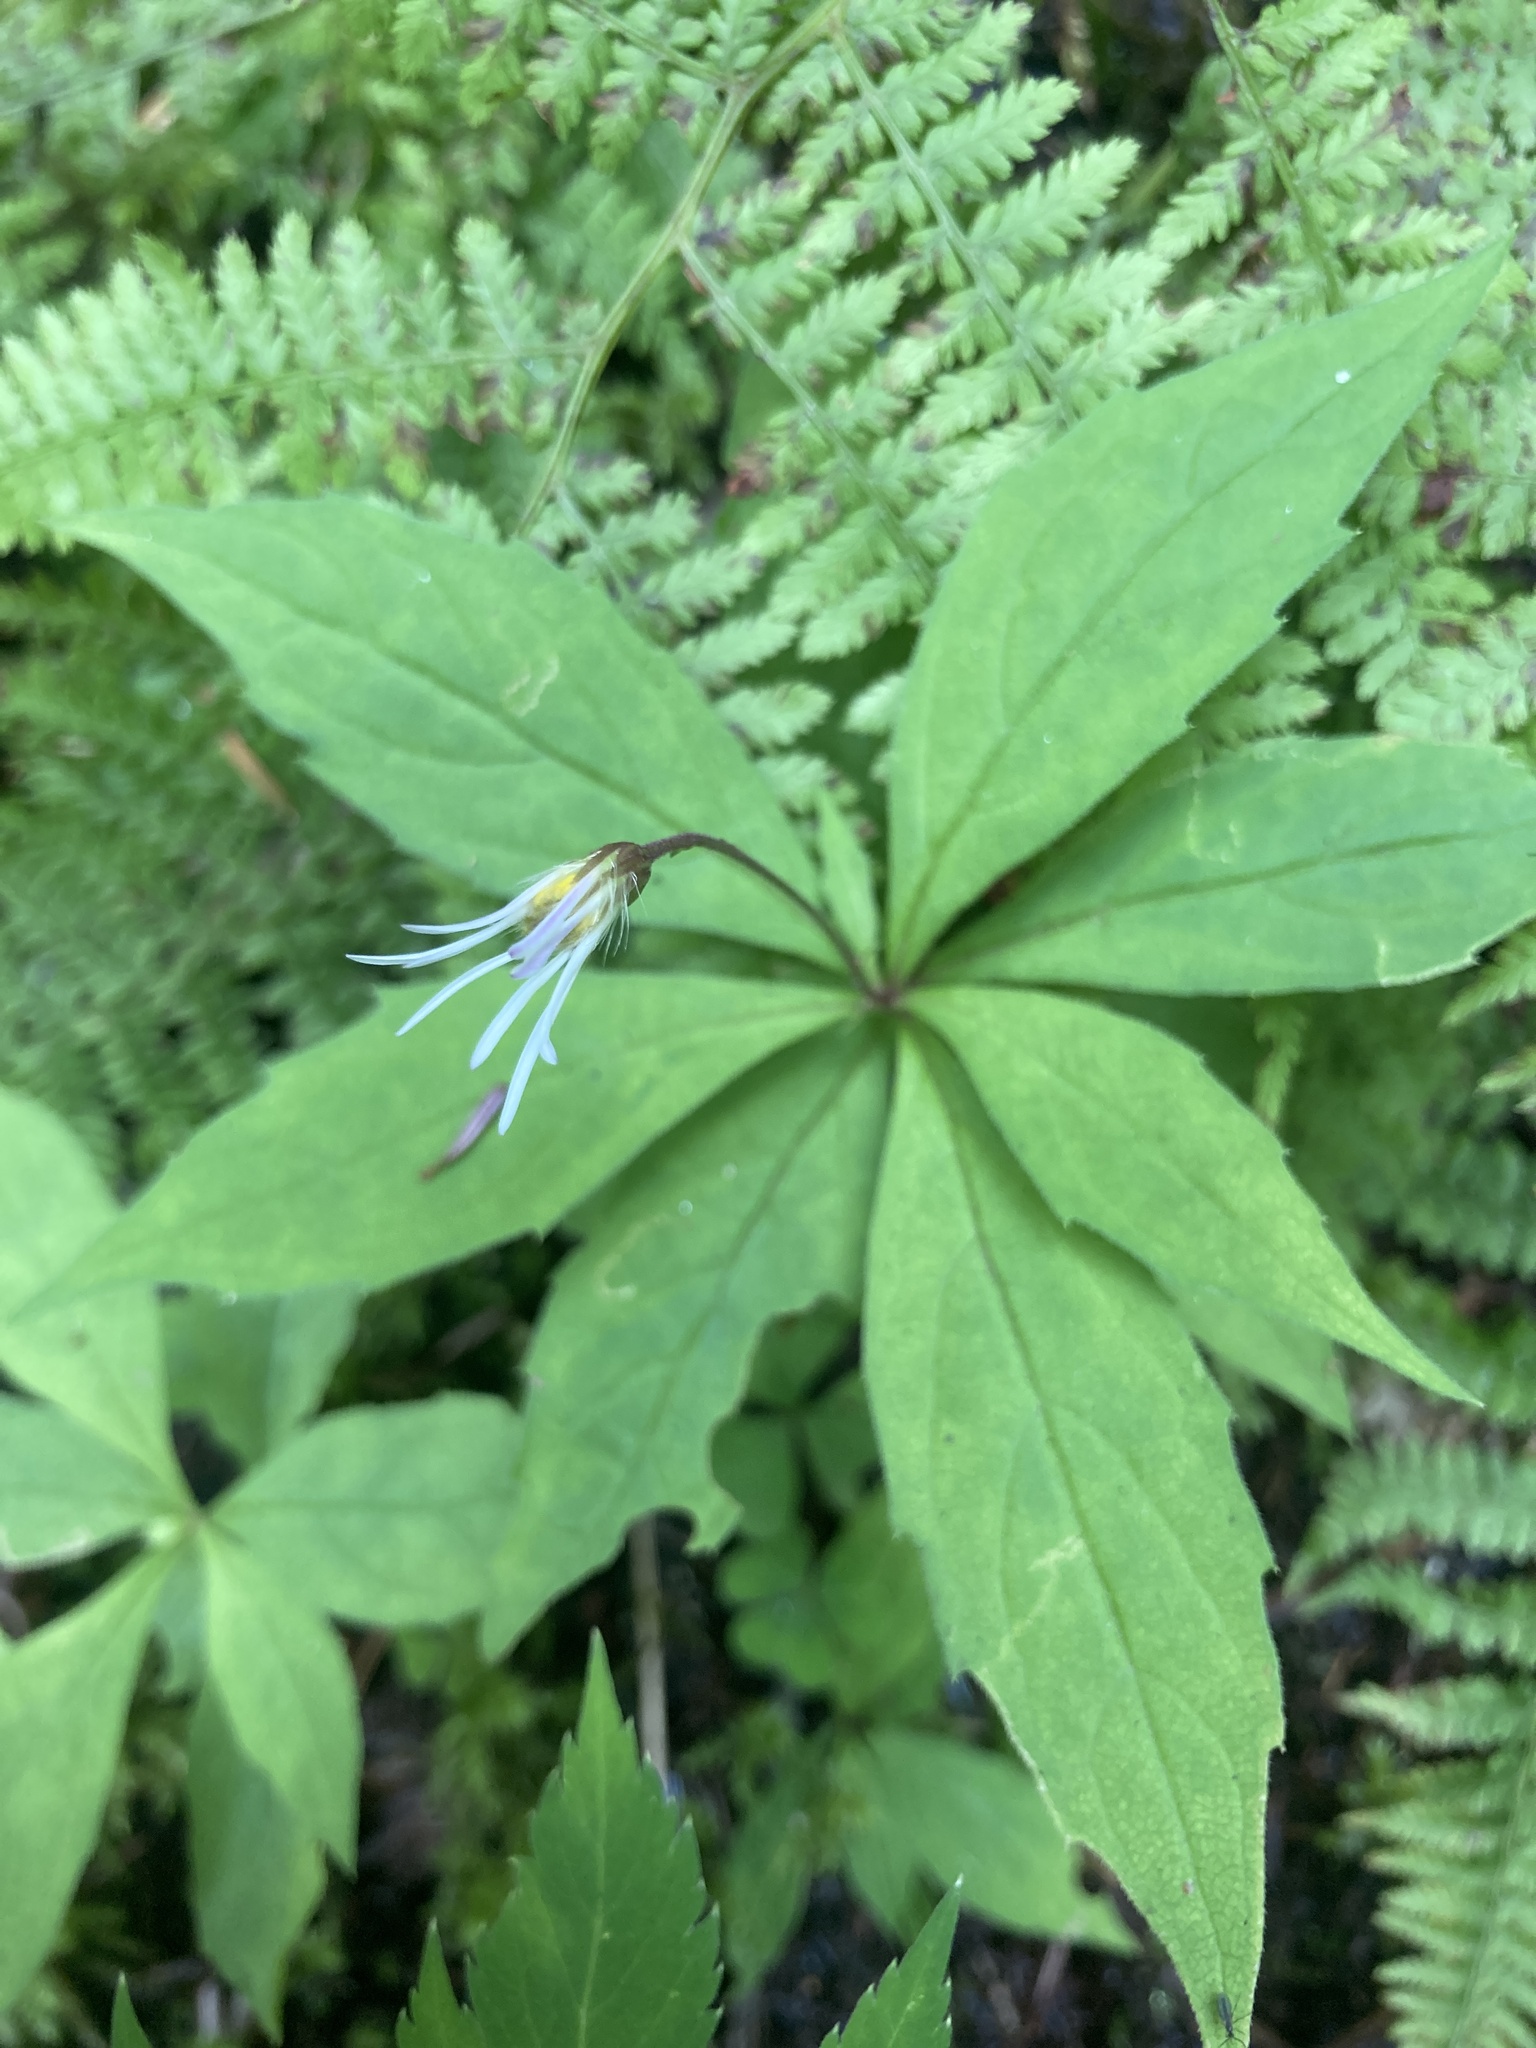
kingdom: Plantae
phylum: Tracheophyta
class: Magnoliopsida
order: Asterales
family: Asteraceae
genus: Oclemena
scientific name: Oclemena acuminata
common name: Mountain aster
